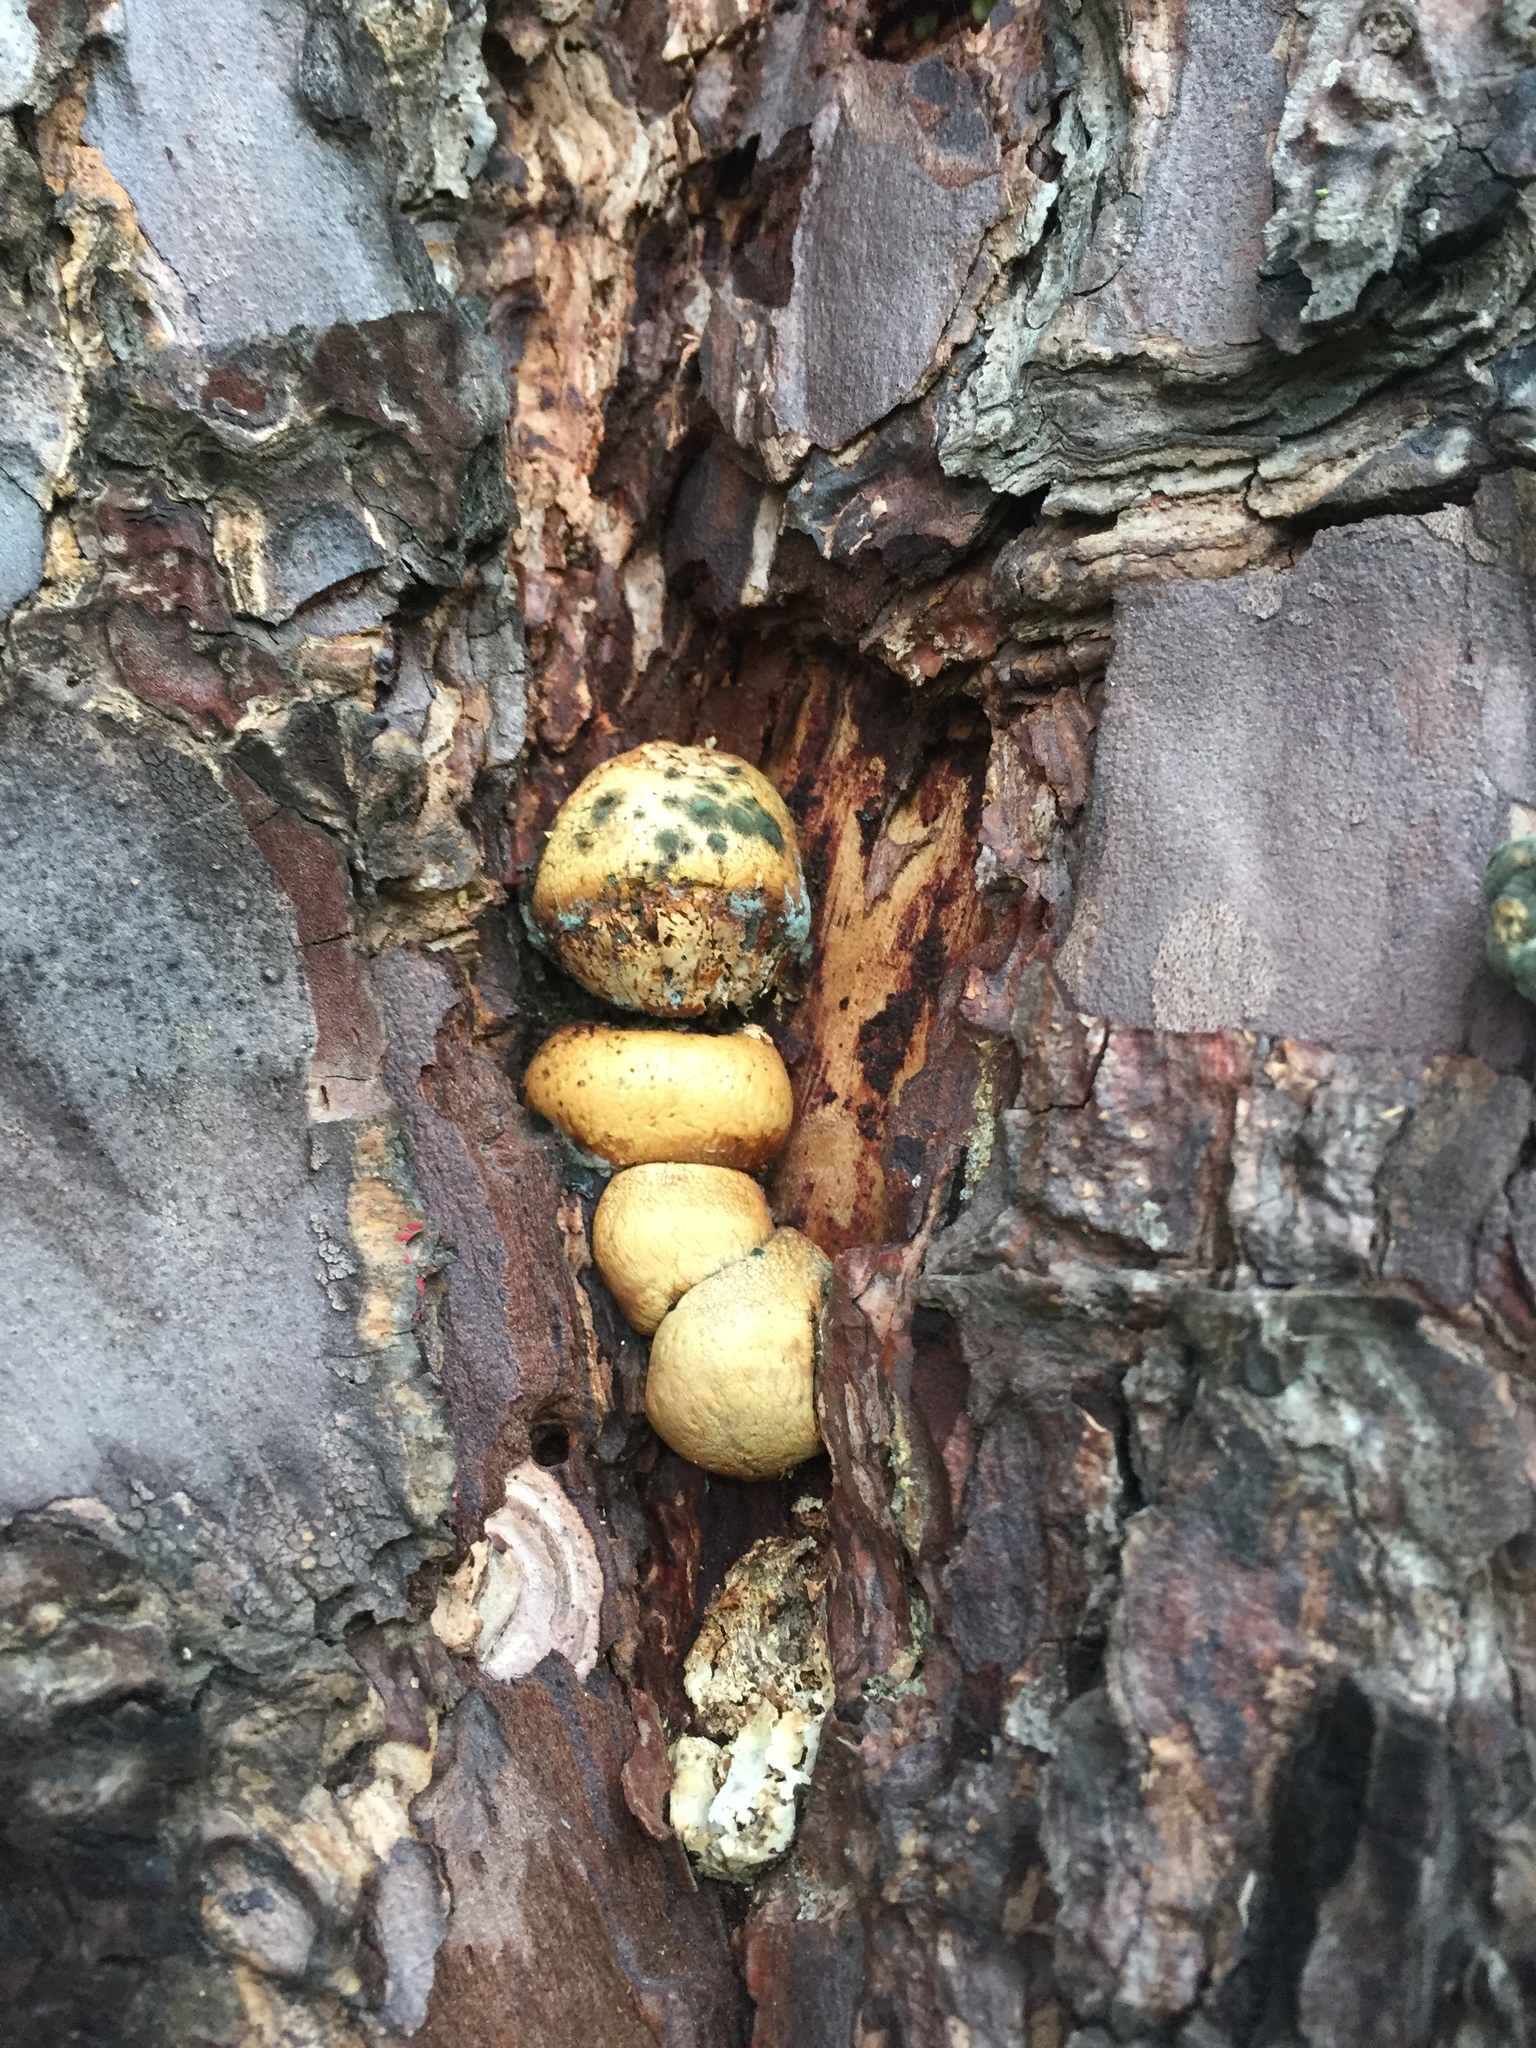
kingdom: Fungi
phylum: Basidiomycota
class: Agaricomycetes
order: Polyporales
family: Polyporaceae
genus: Cryptoporus
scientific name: Cryptoporus volvatus
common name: Veiled polypore
